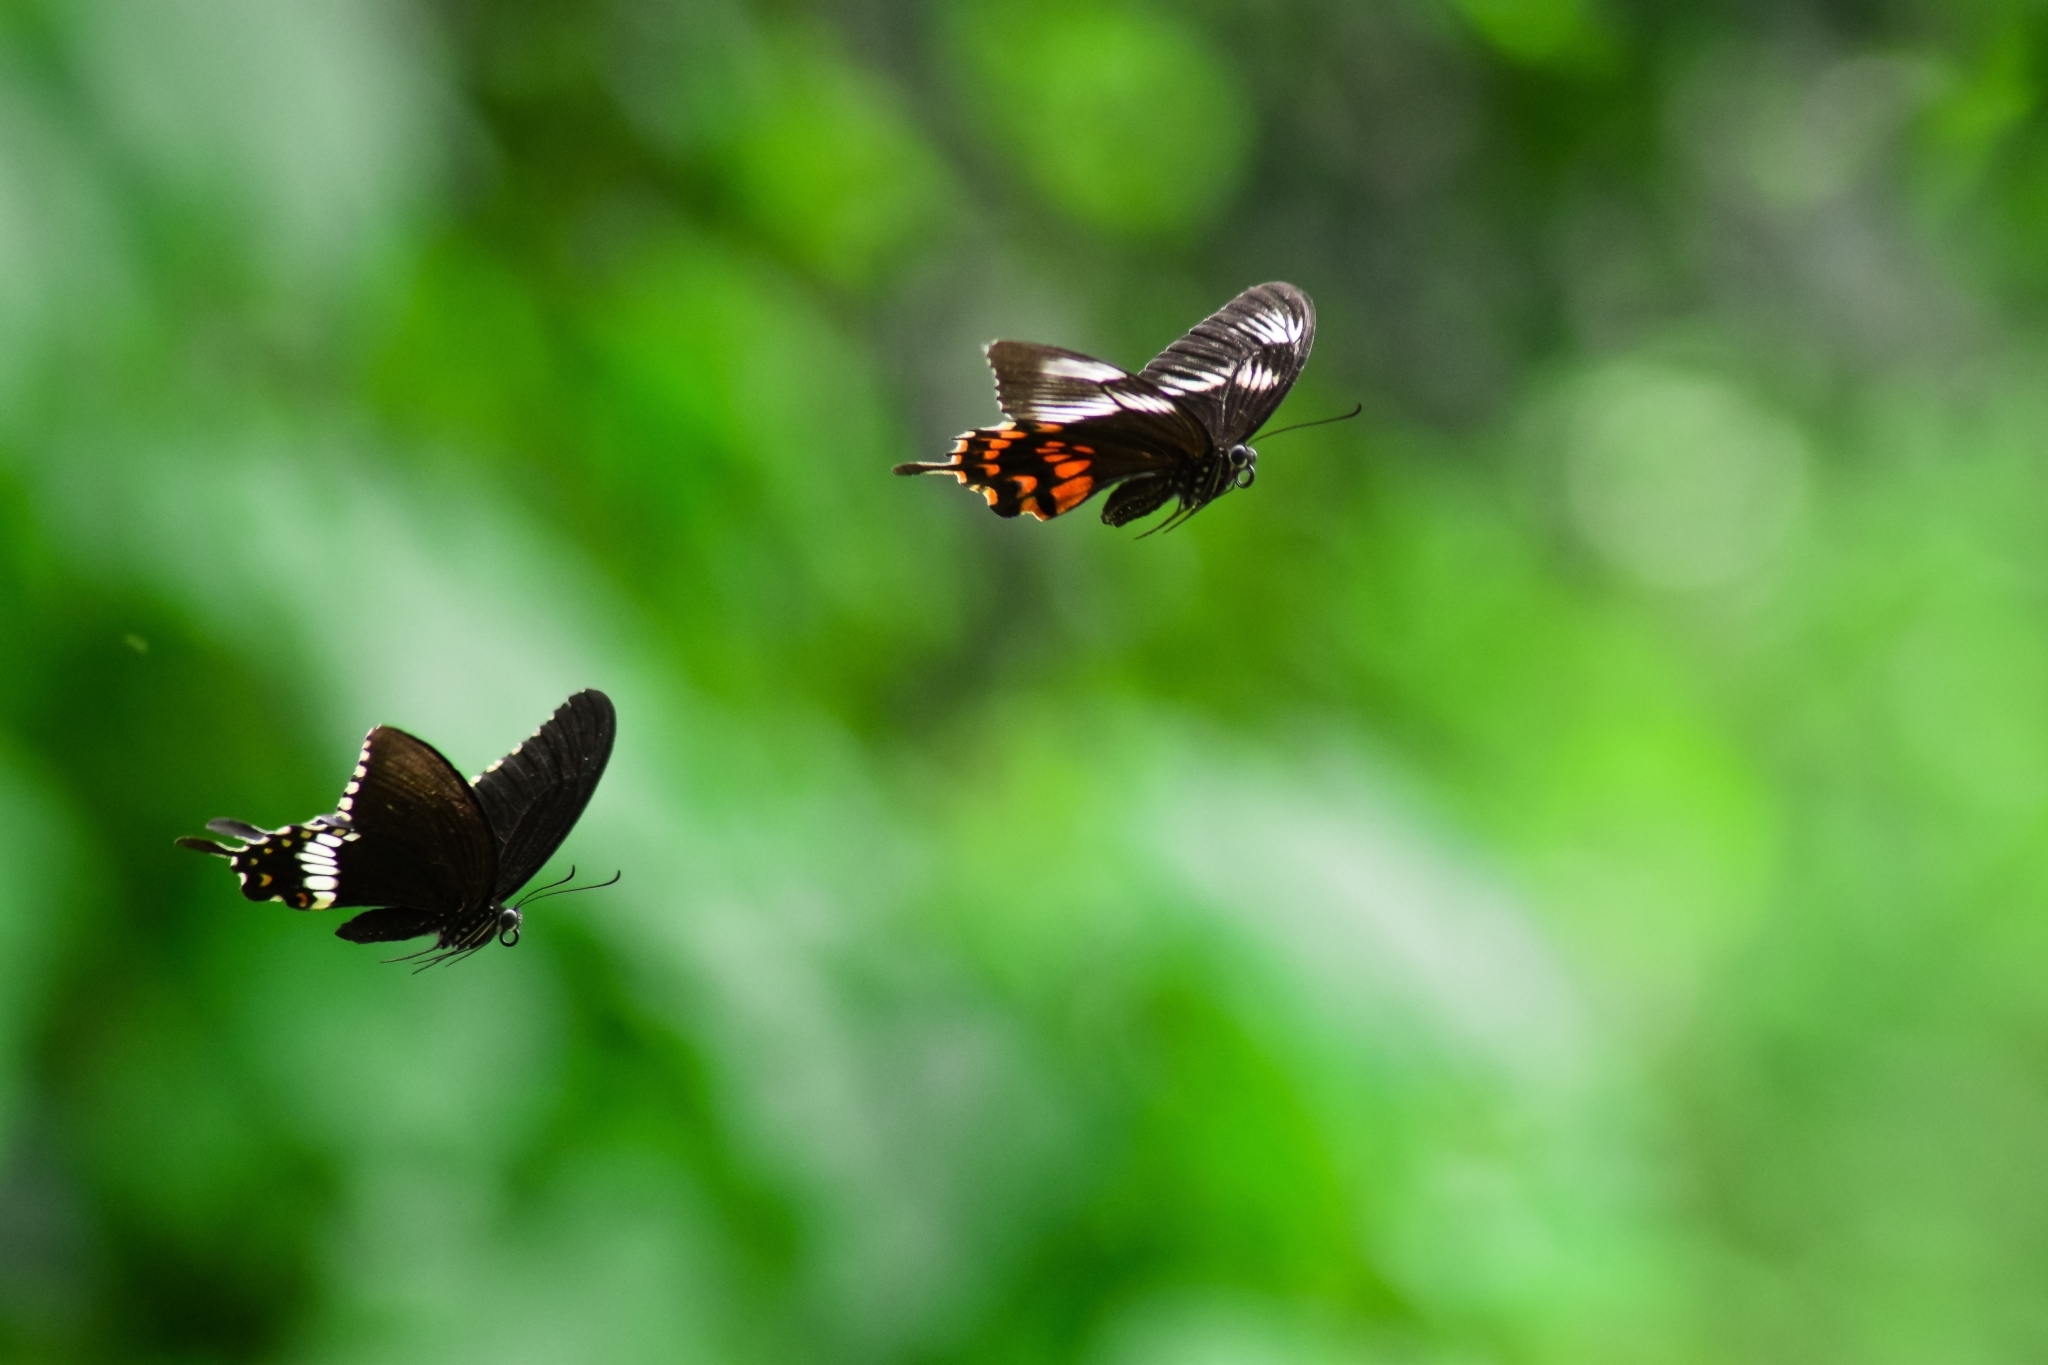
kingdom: Animalia
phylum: Arthropoda
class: Insecta
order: Lepidoptera
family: Papilionidae
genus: Papilio
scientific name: Papilio polytes
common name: Common mormon
